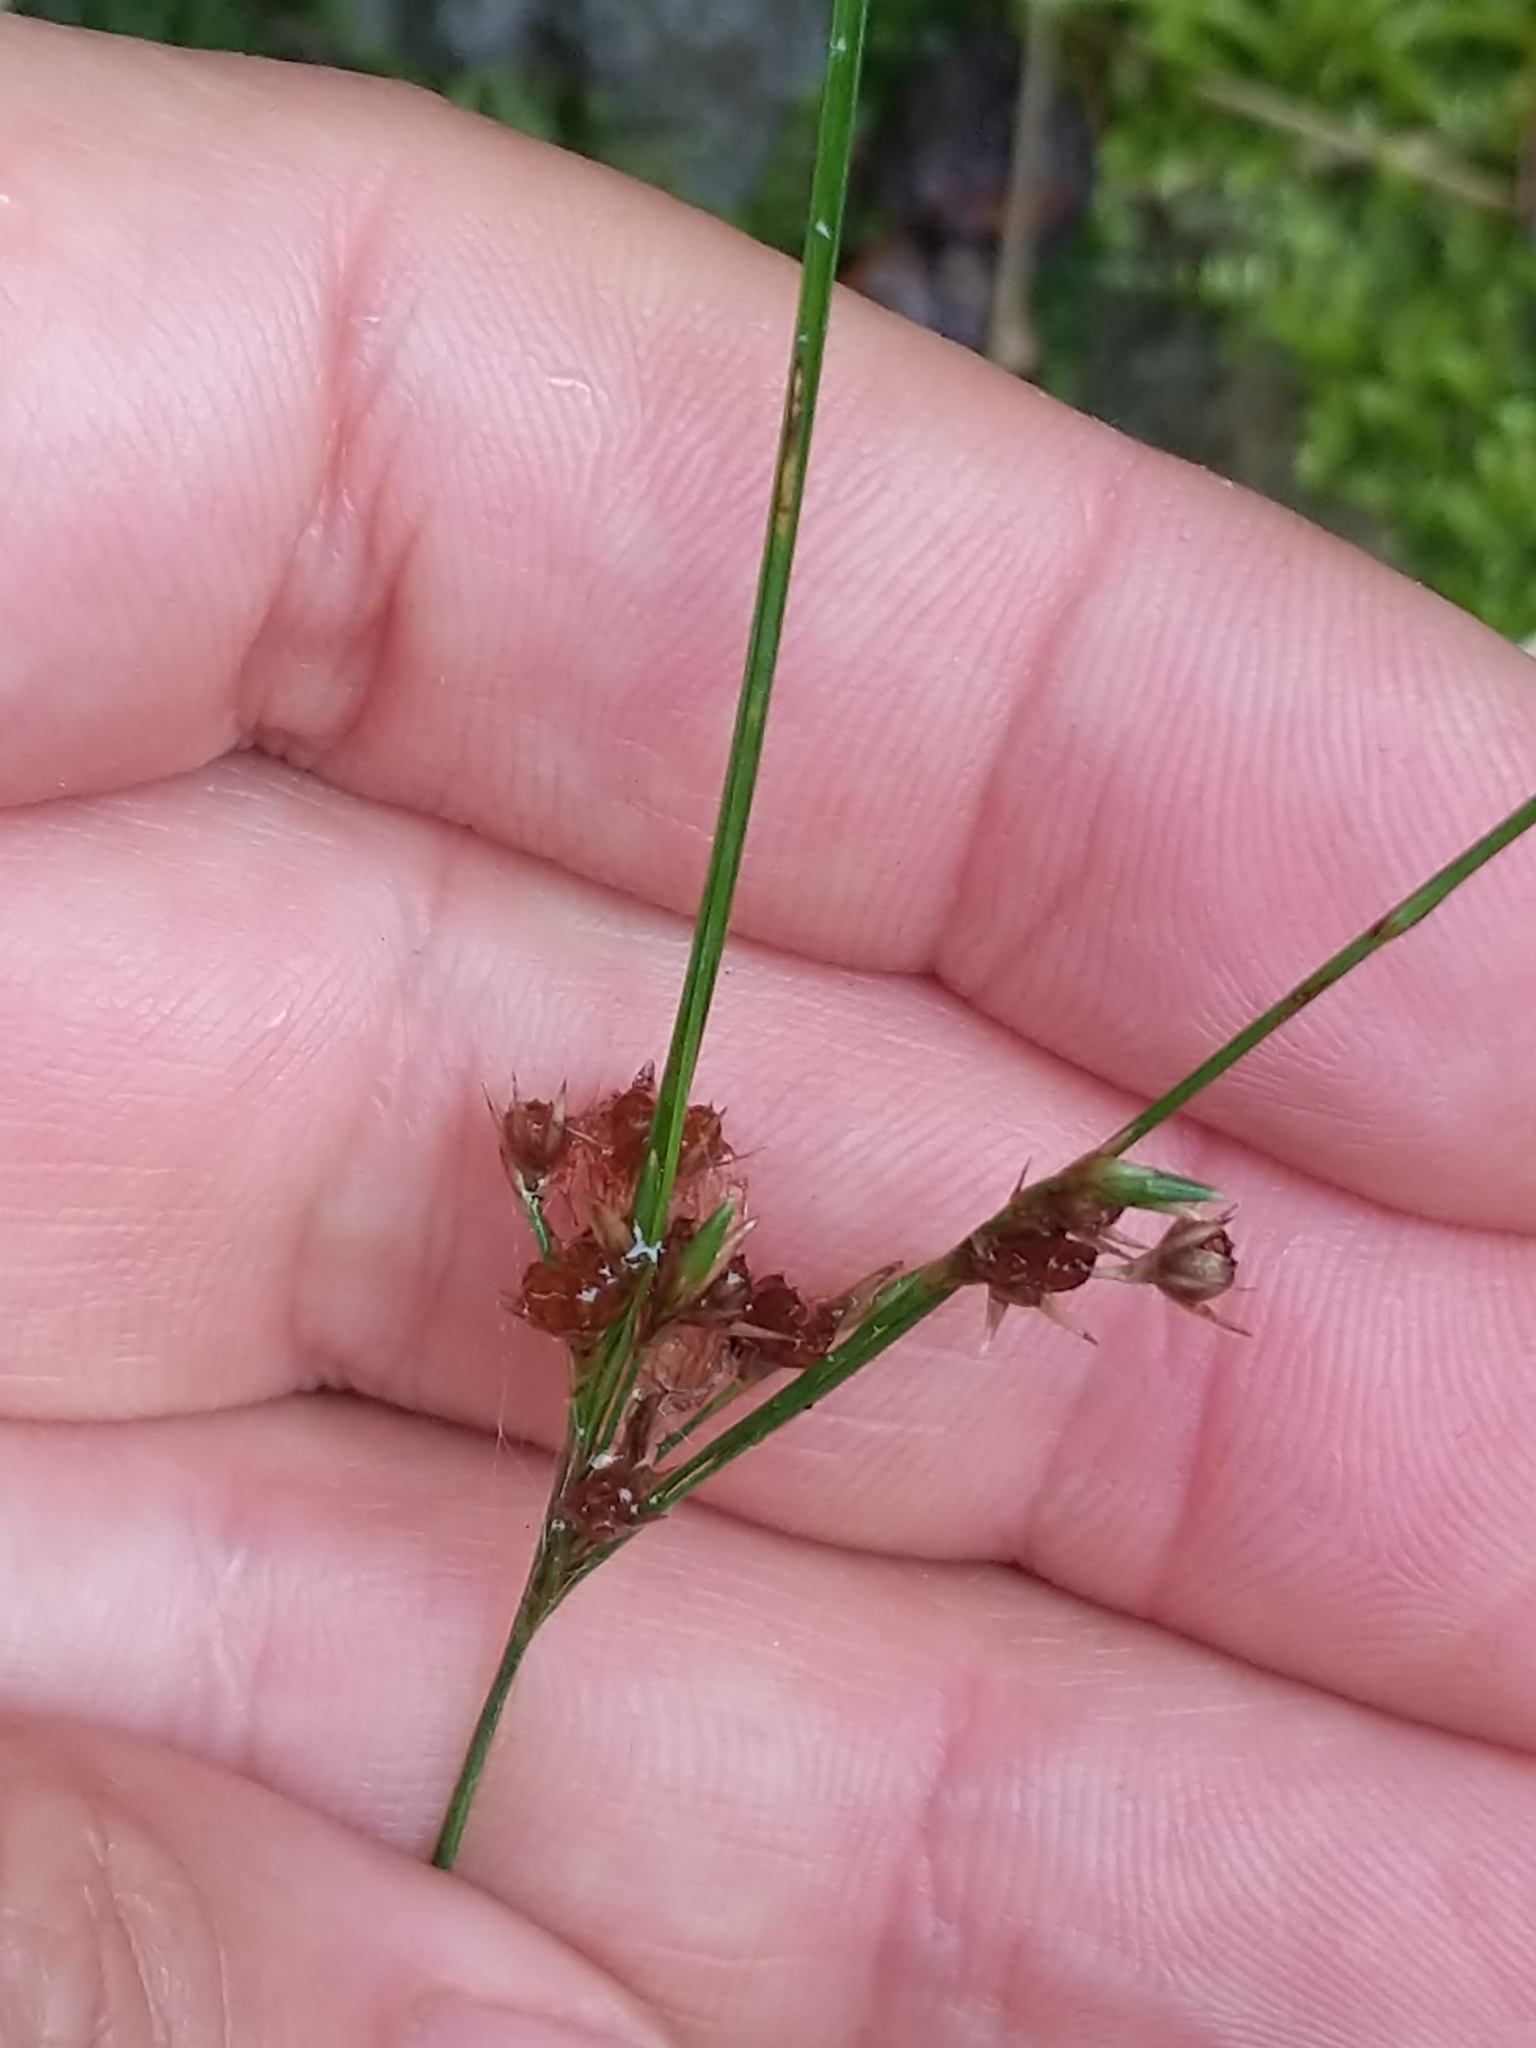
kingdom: Plantae
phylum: Tracheophyta
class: Liliopsida
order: Poales
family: Juncaceae
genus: Juncus
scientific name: Juncus tenuis
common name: Slender rush
